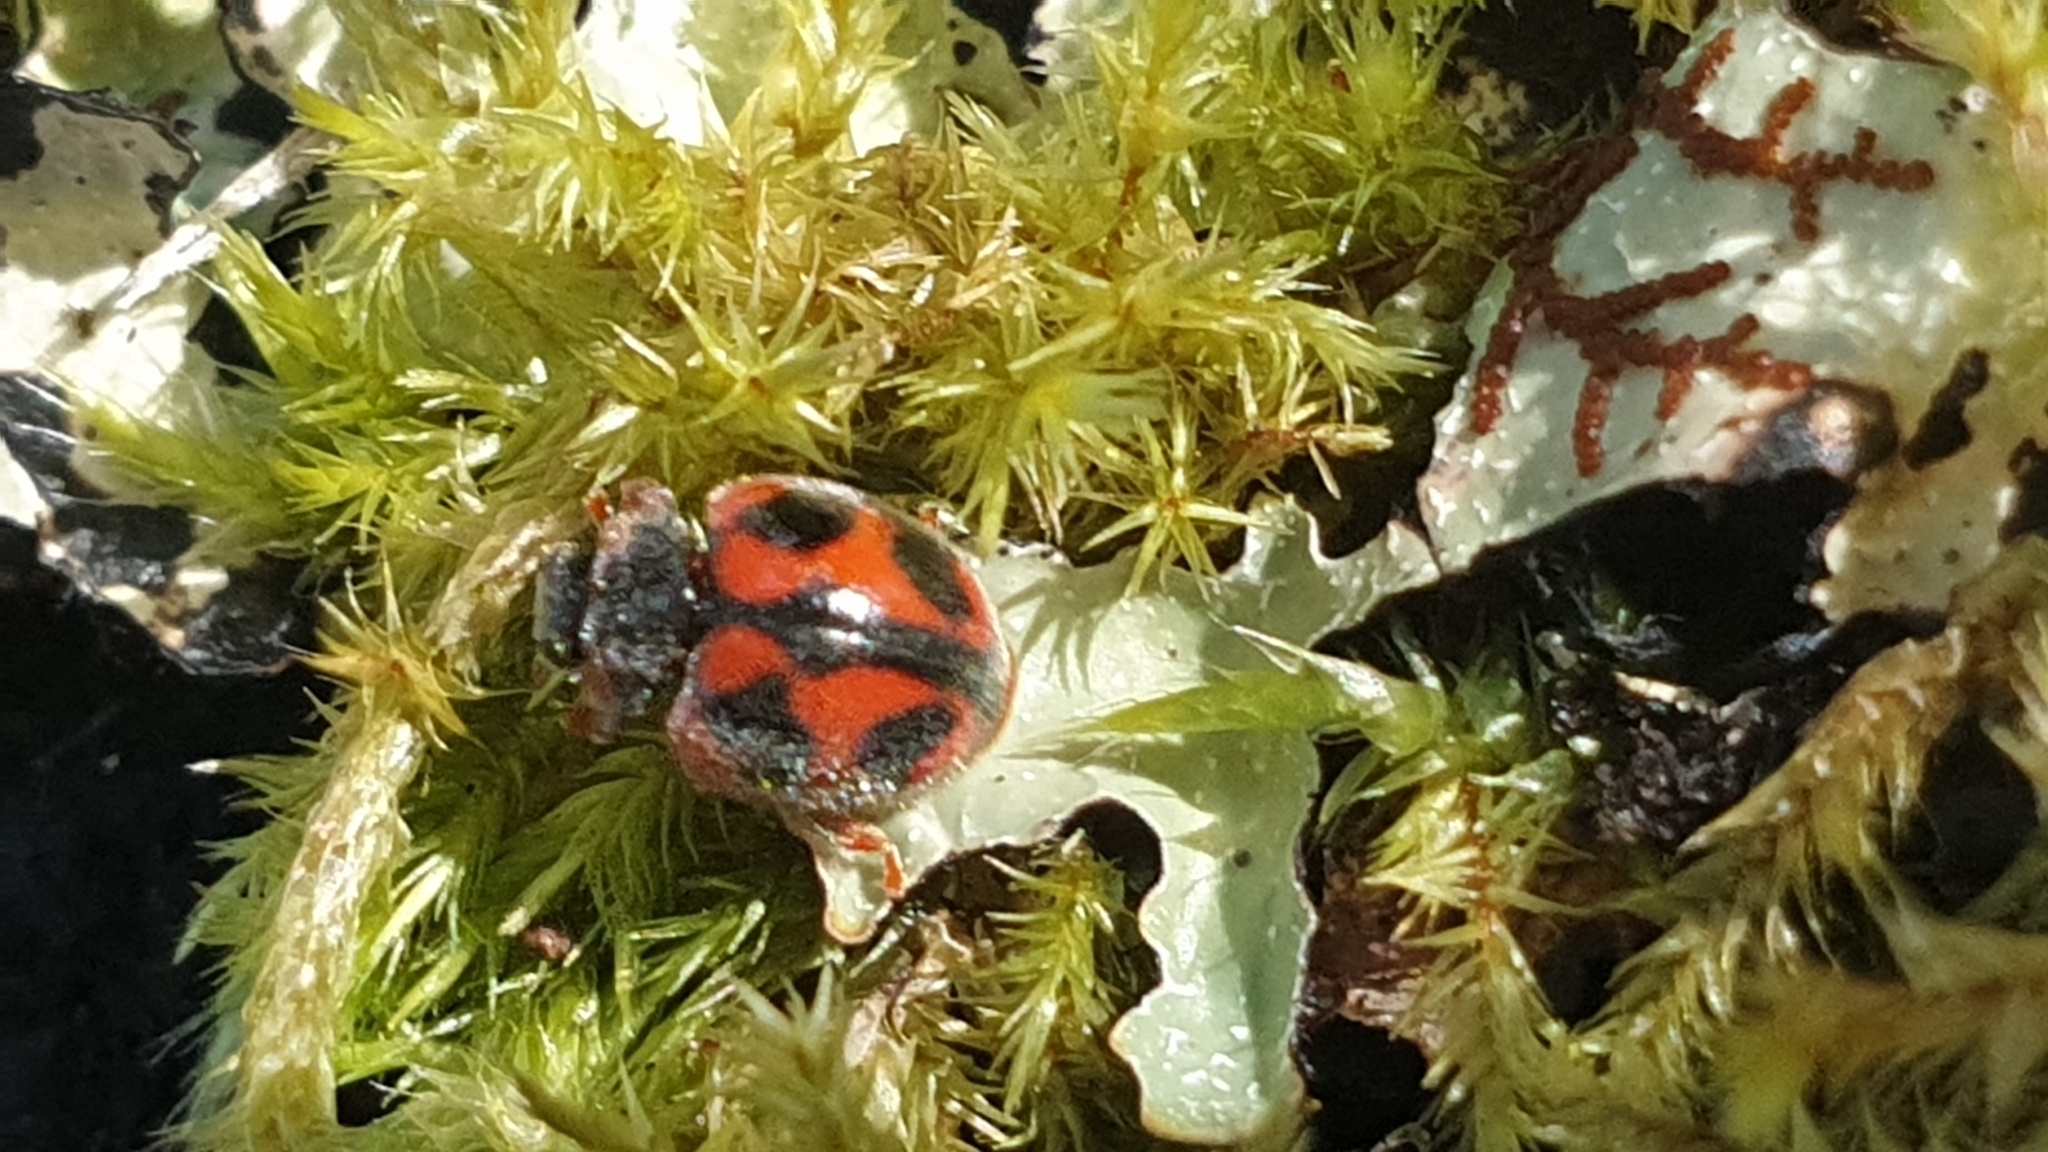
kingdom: Animalia
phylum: Arthropoda
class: Insecta
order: Coleoptera
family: Coccinellidae
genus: Novius
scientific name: Novius cardinalis
